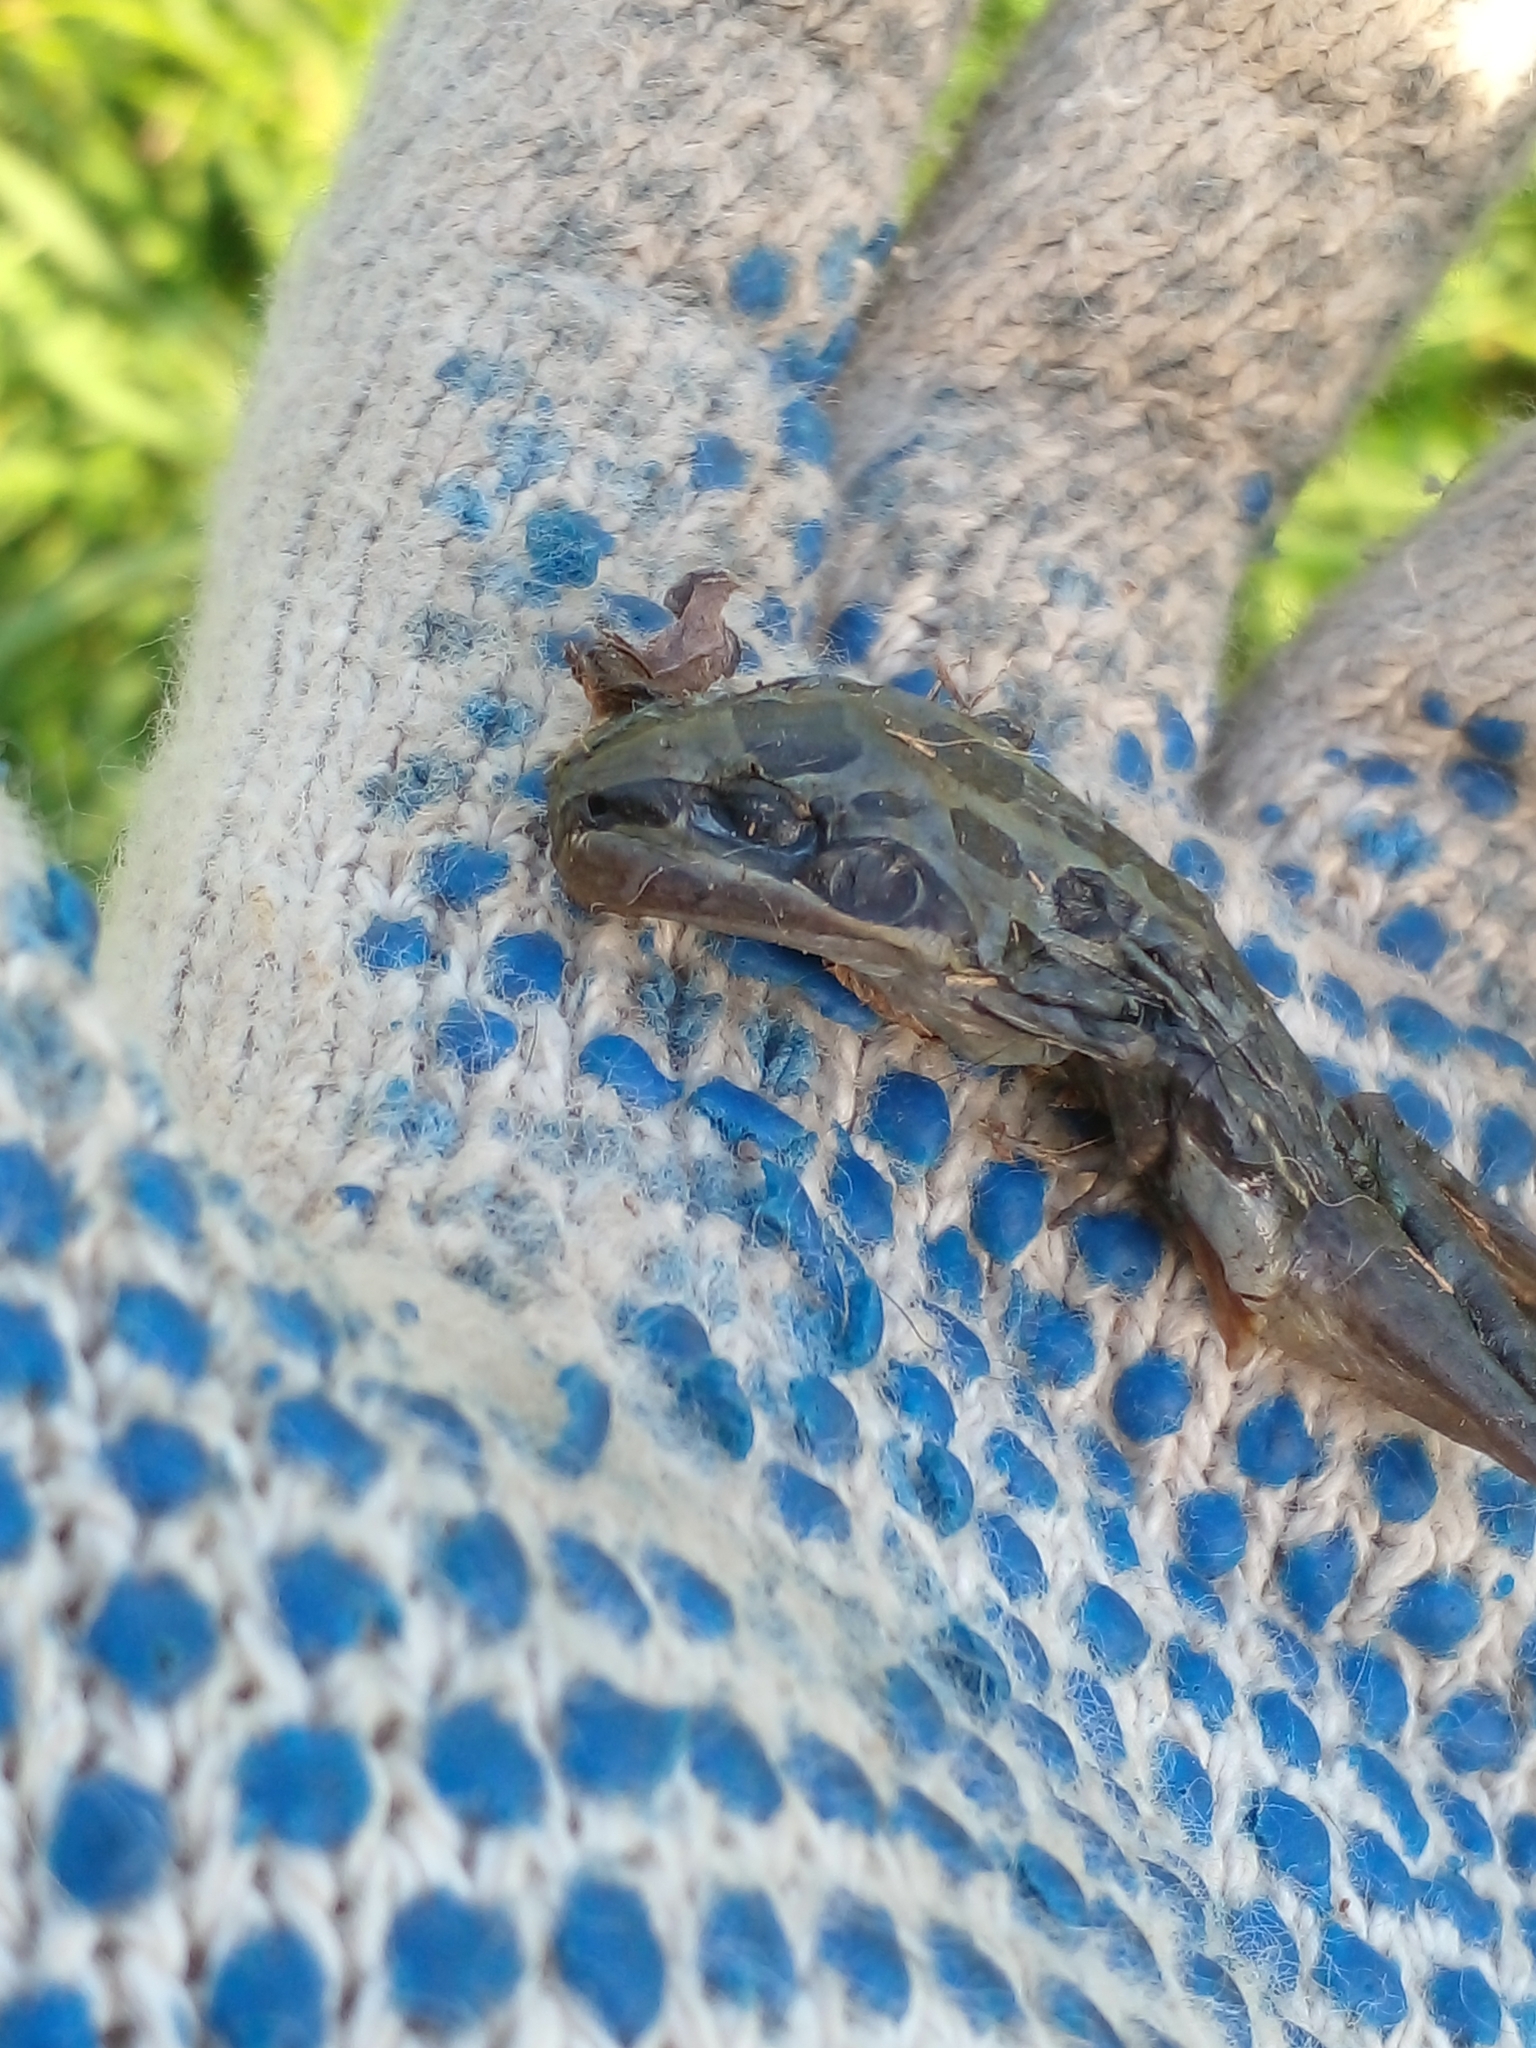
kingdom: Animalia
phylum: Chordata
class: Amphibia
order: Anura
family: Leptodactylidae
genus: Leptodactylus
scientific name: Leptodactylus luctator
